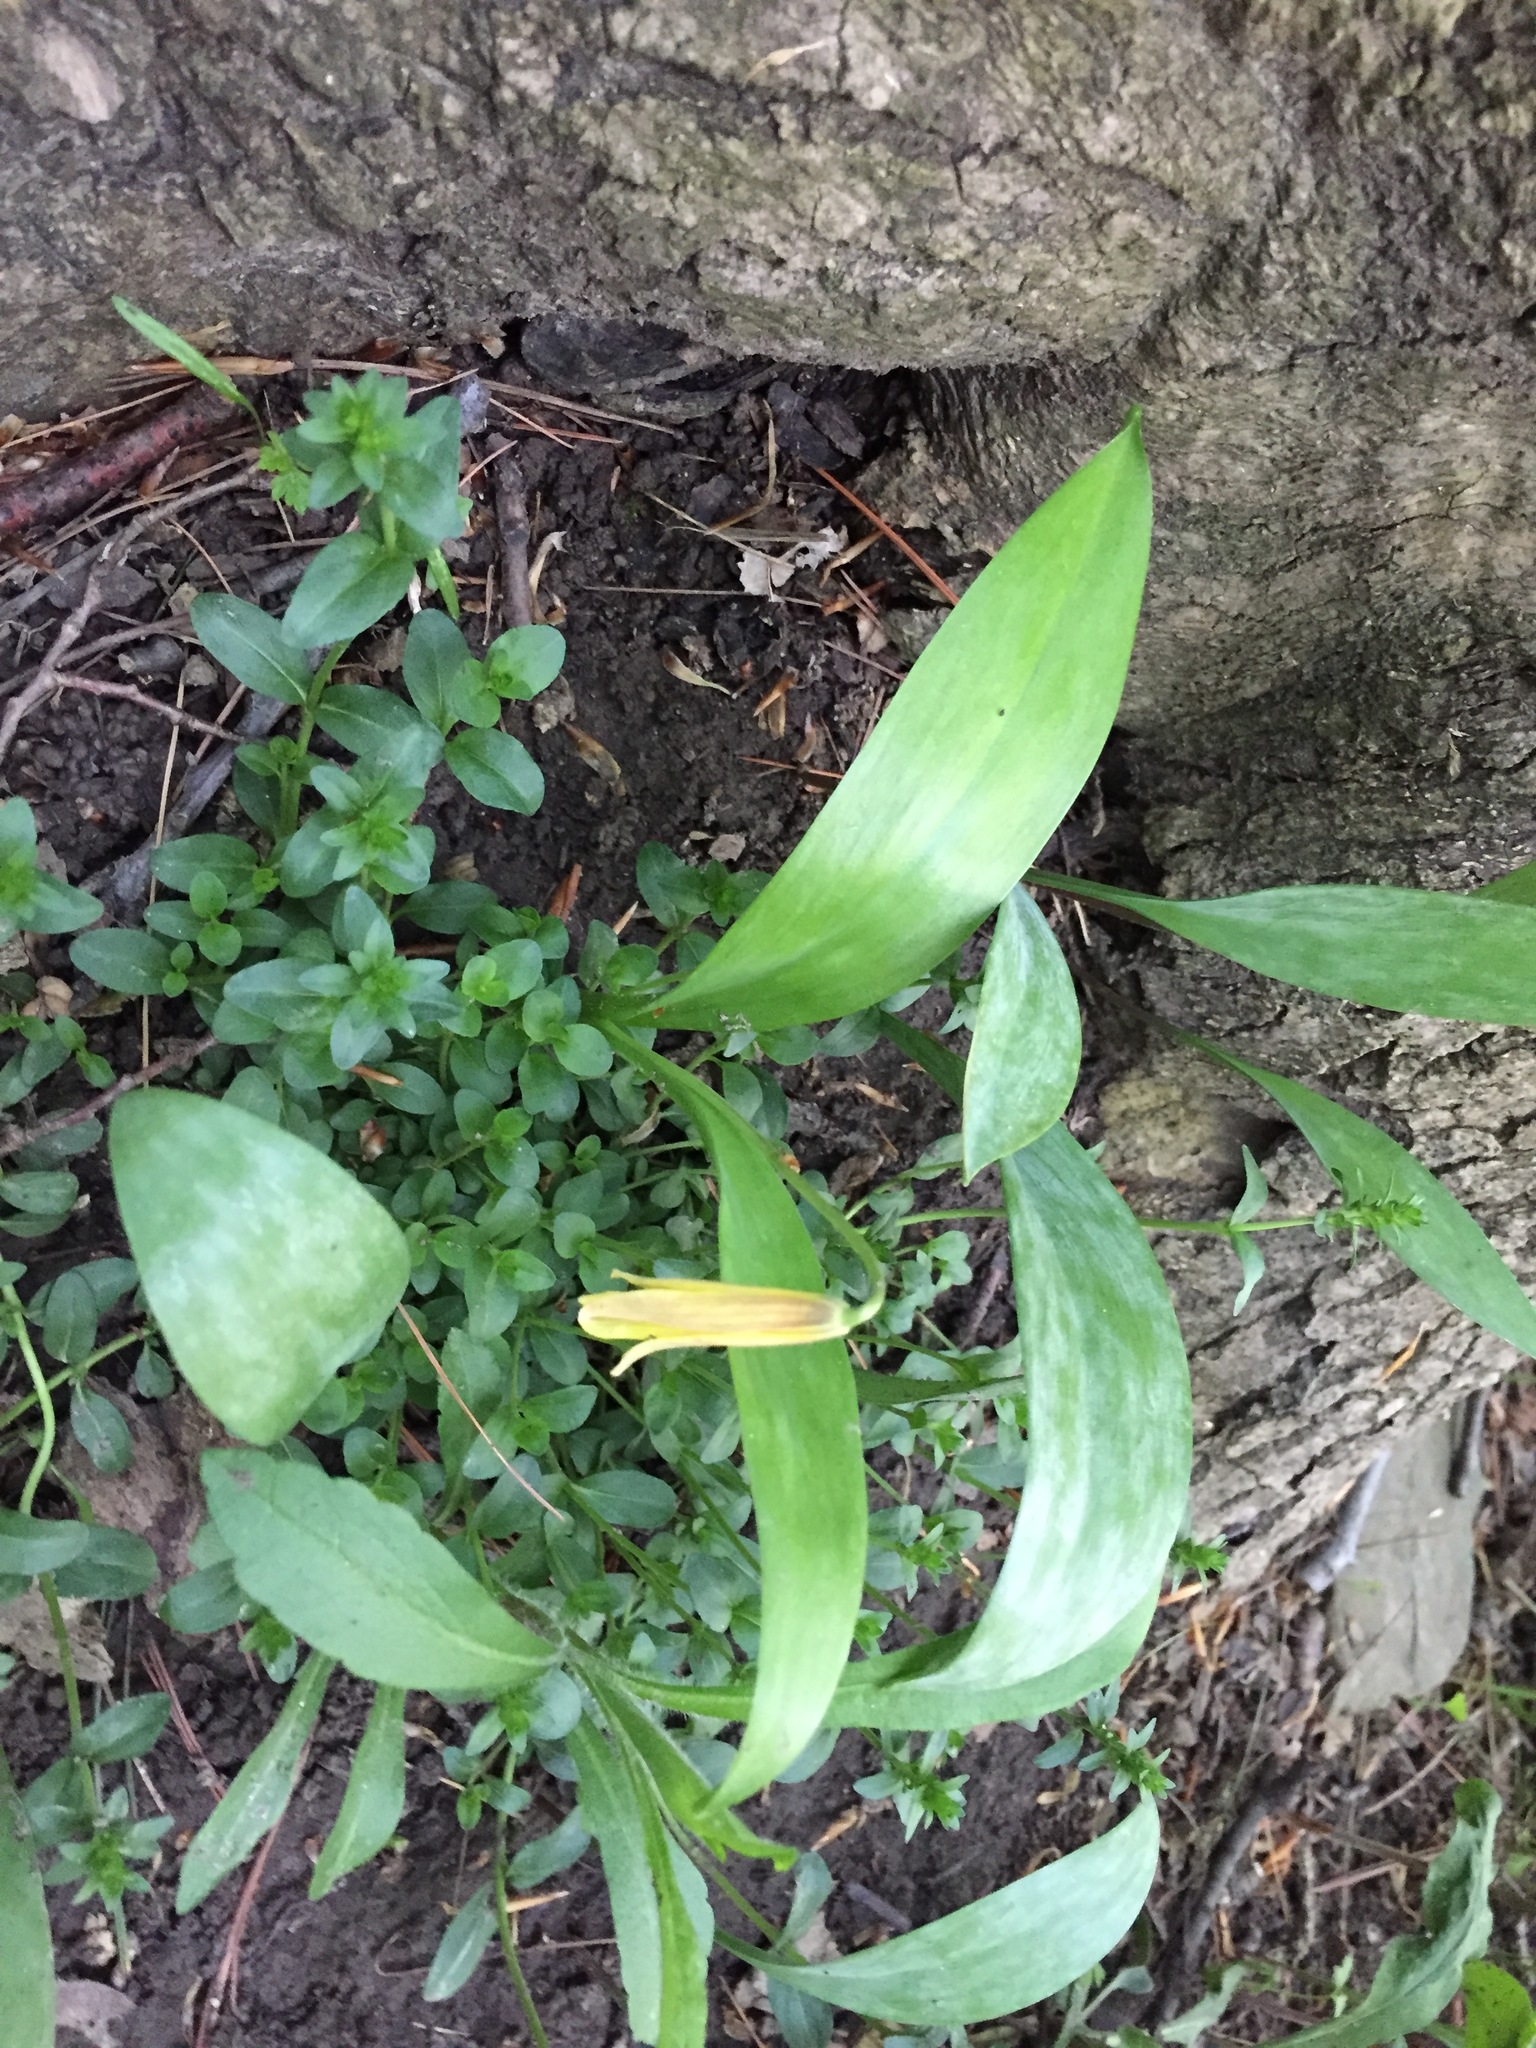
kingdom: Plantae
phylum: Tracheophyta
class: Liliopsida
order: Liliales
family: Liliaceae
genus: Erythronium
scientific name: Erythronium americanum
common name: Yellow adder's-tongue
